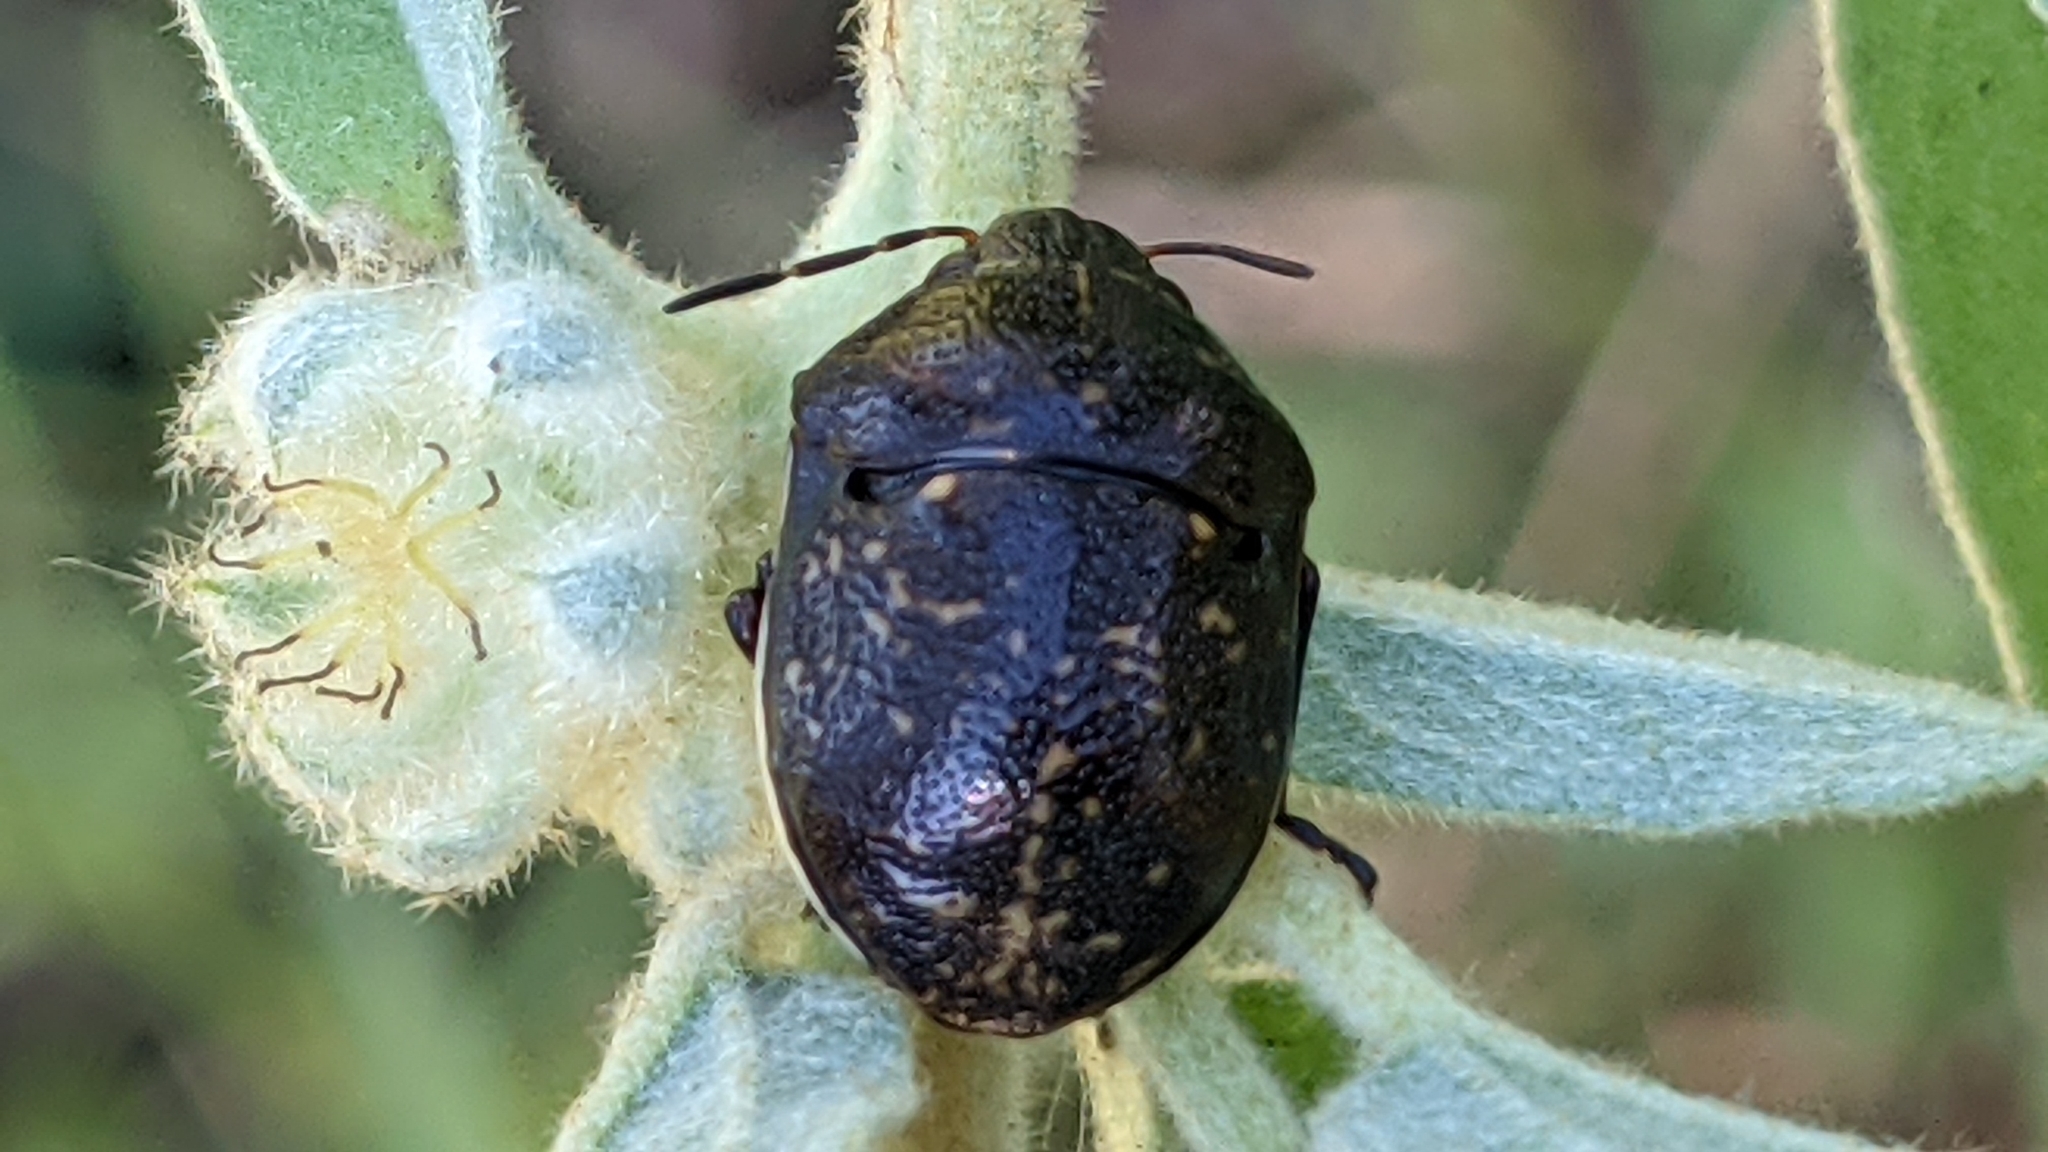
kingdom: Animalia
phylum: Arthropoda
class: Insecta
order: Hemiptera
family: Scutelleridae
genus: Orsilochides
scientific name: Orsilochides guttata
